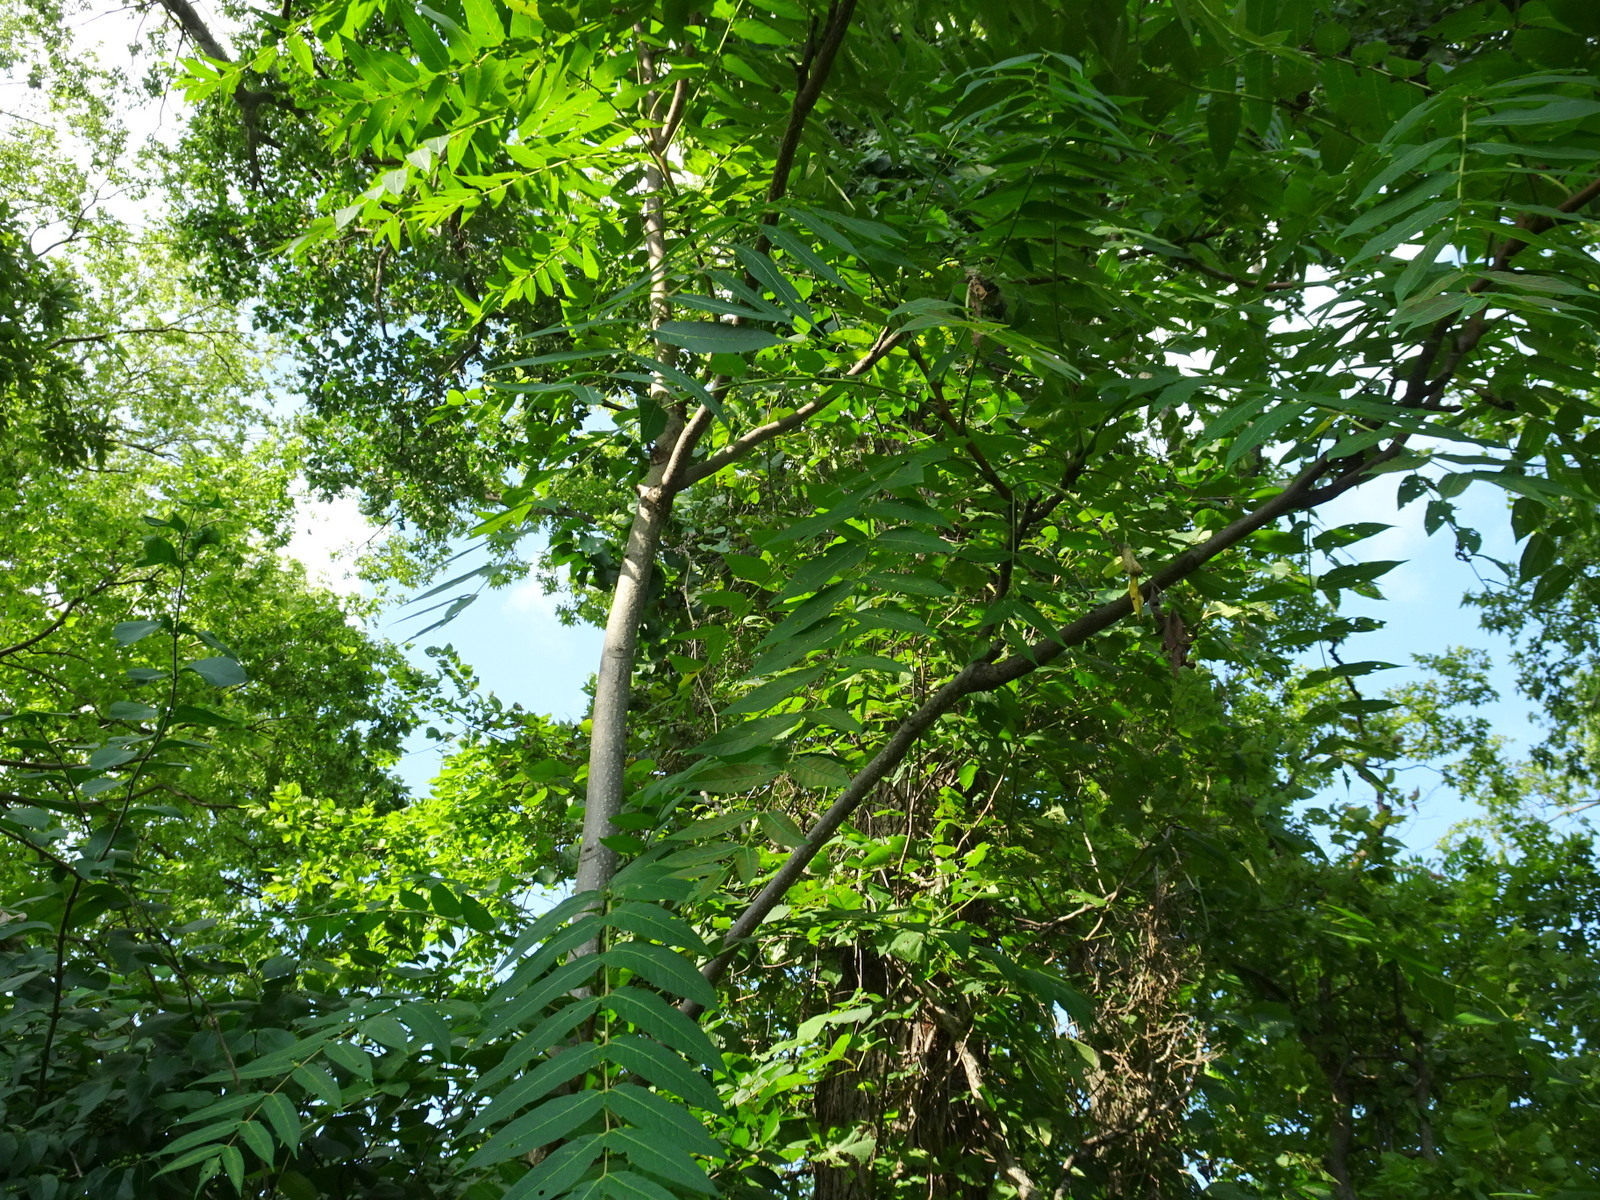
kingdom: Plantae
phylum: Tracheophyta
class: Magnoliopsida
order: Fagales
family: Juglandaceae
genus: Juglans
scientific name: Juglans nigra
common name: Black walnut
